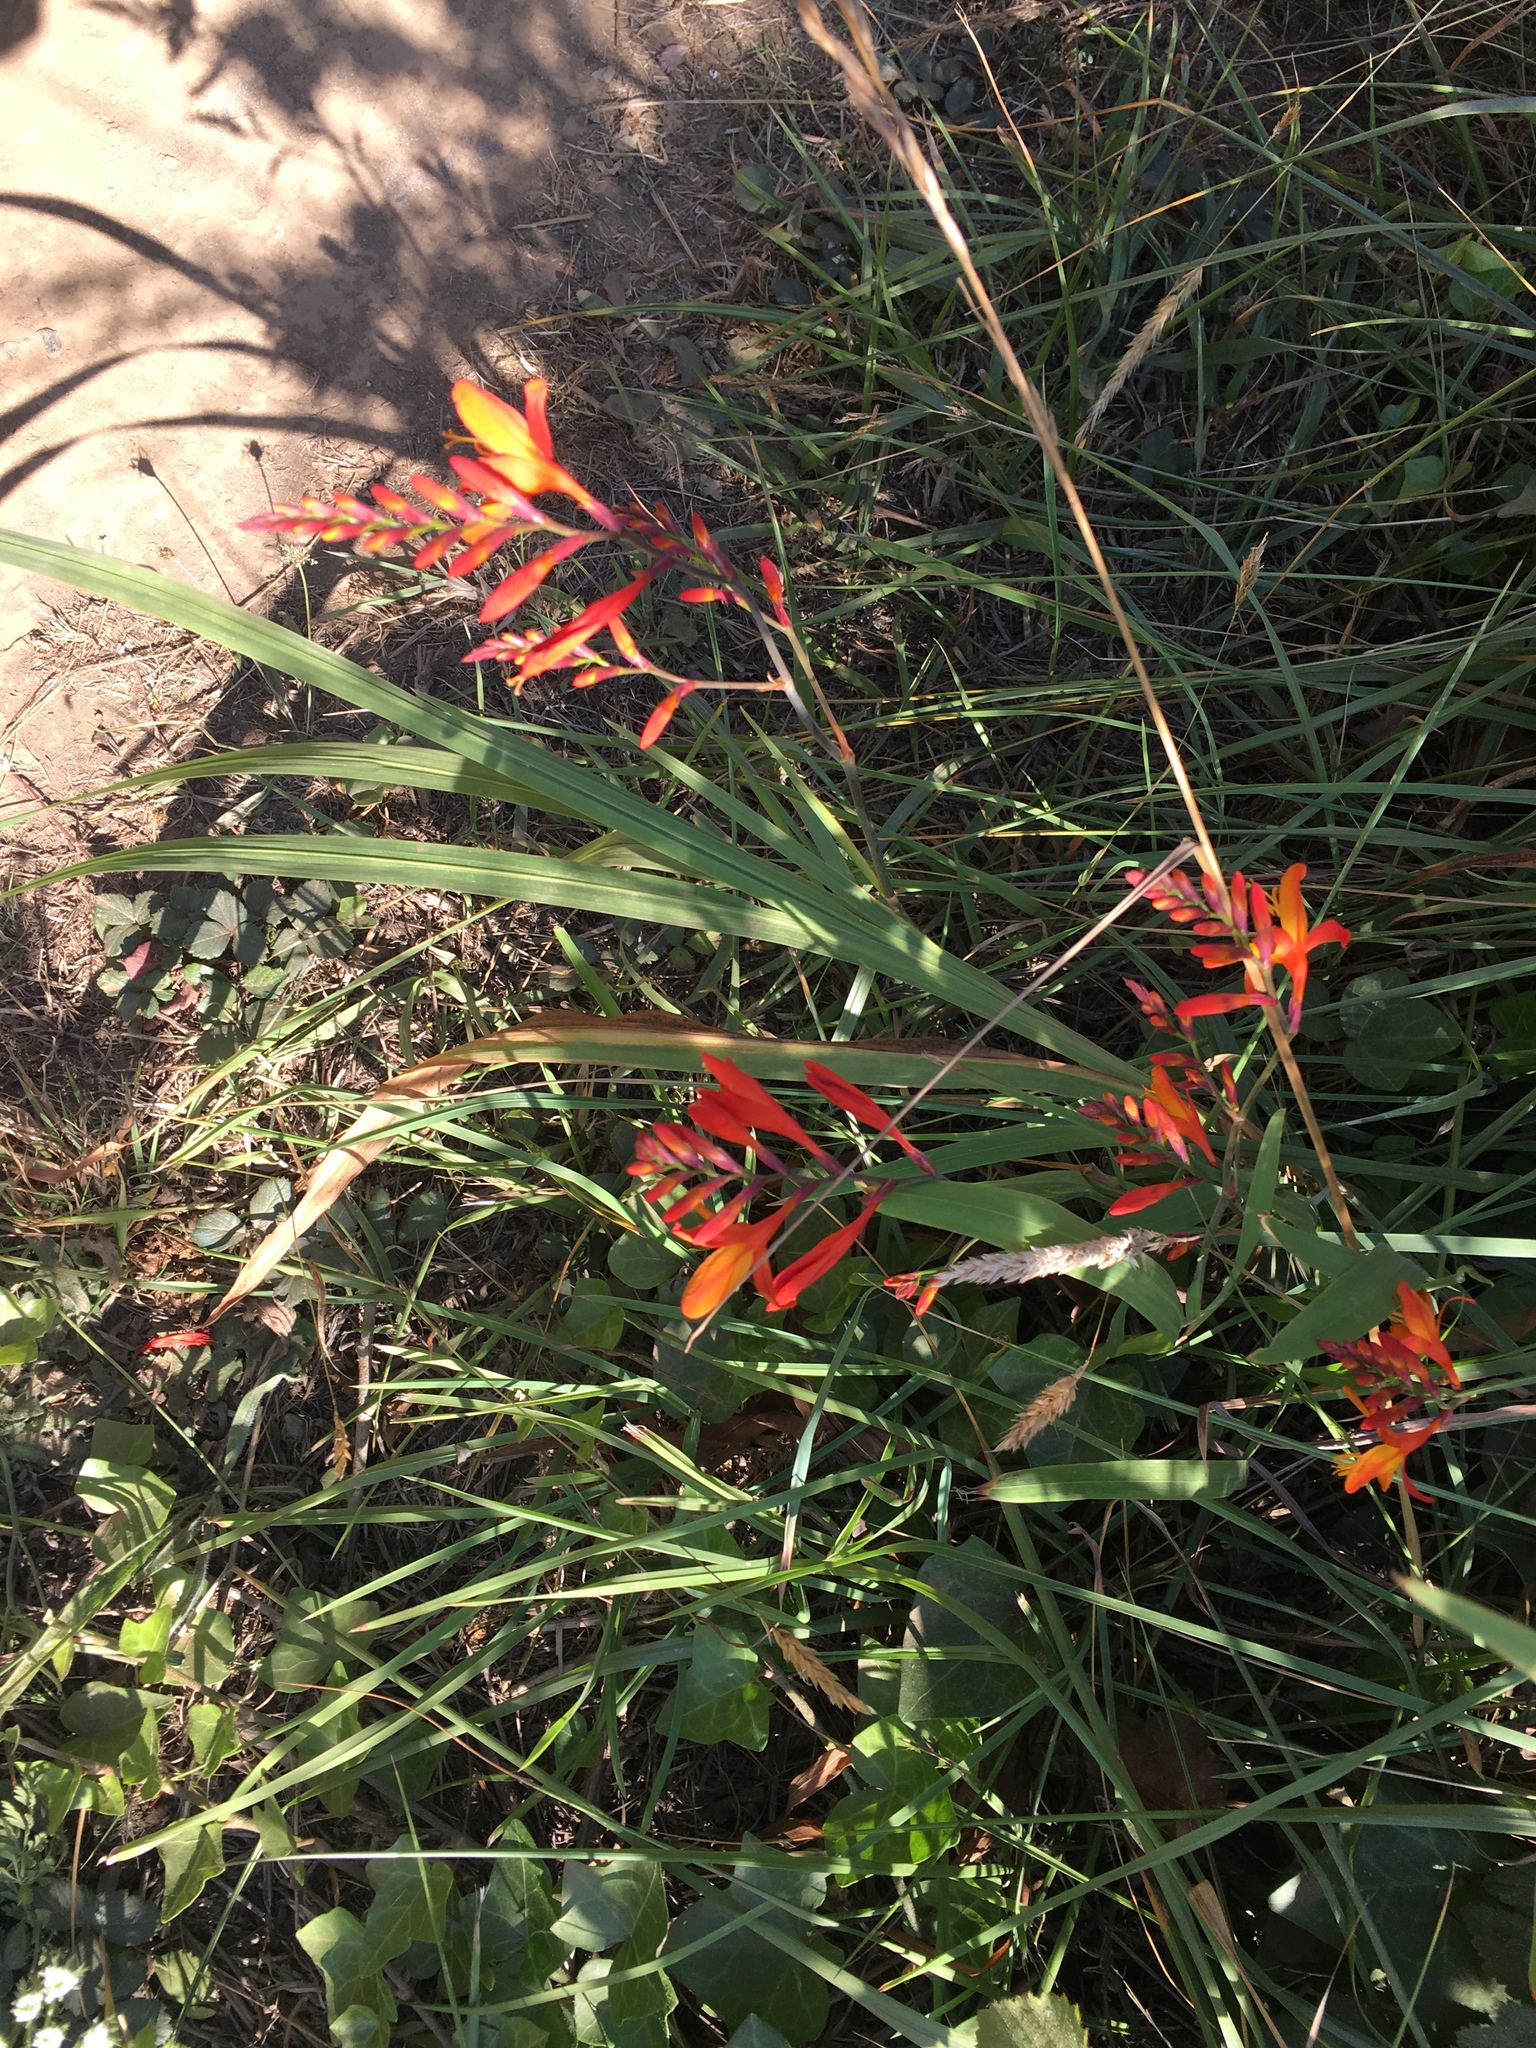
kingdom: Plantae
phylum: Tracheophyta
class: Liliopsida
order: Asparagales
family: Iridaceae
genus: Crocosmia
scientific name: Crocosmia crocosmiiflora
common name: Montbretia
